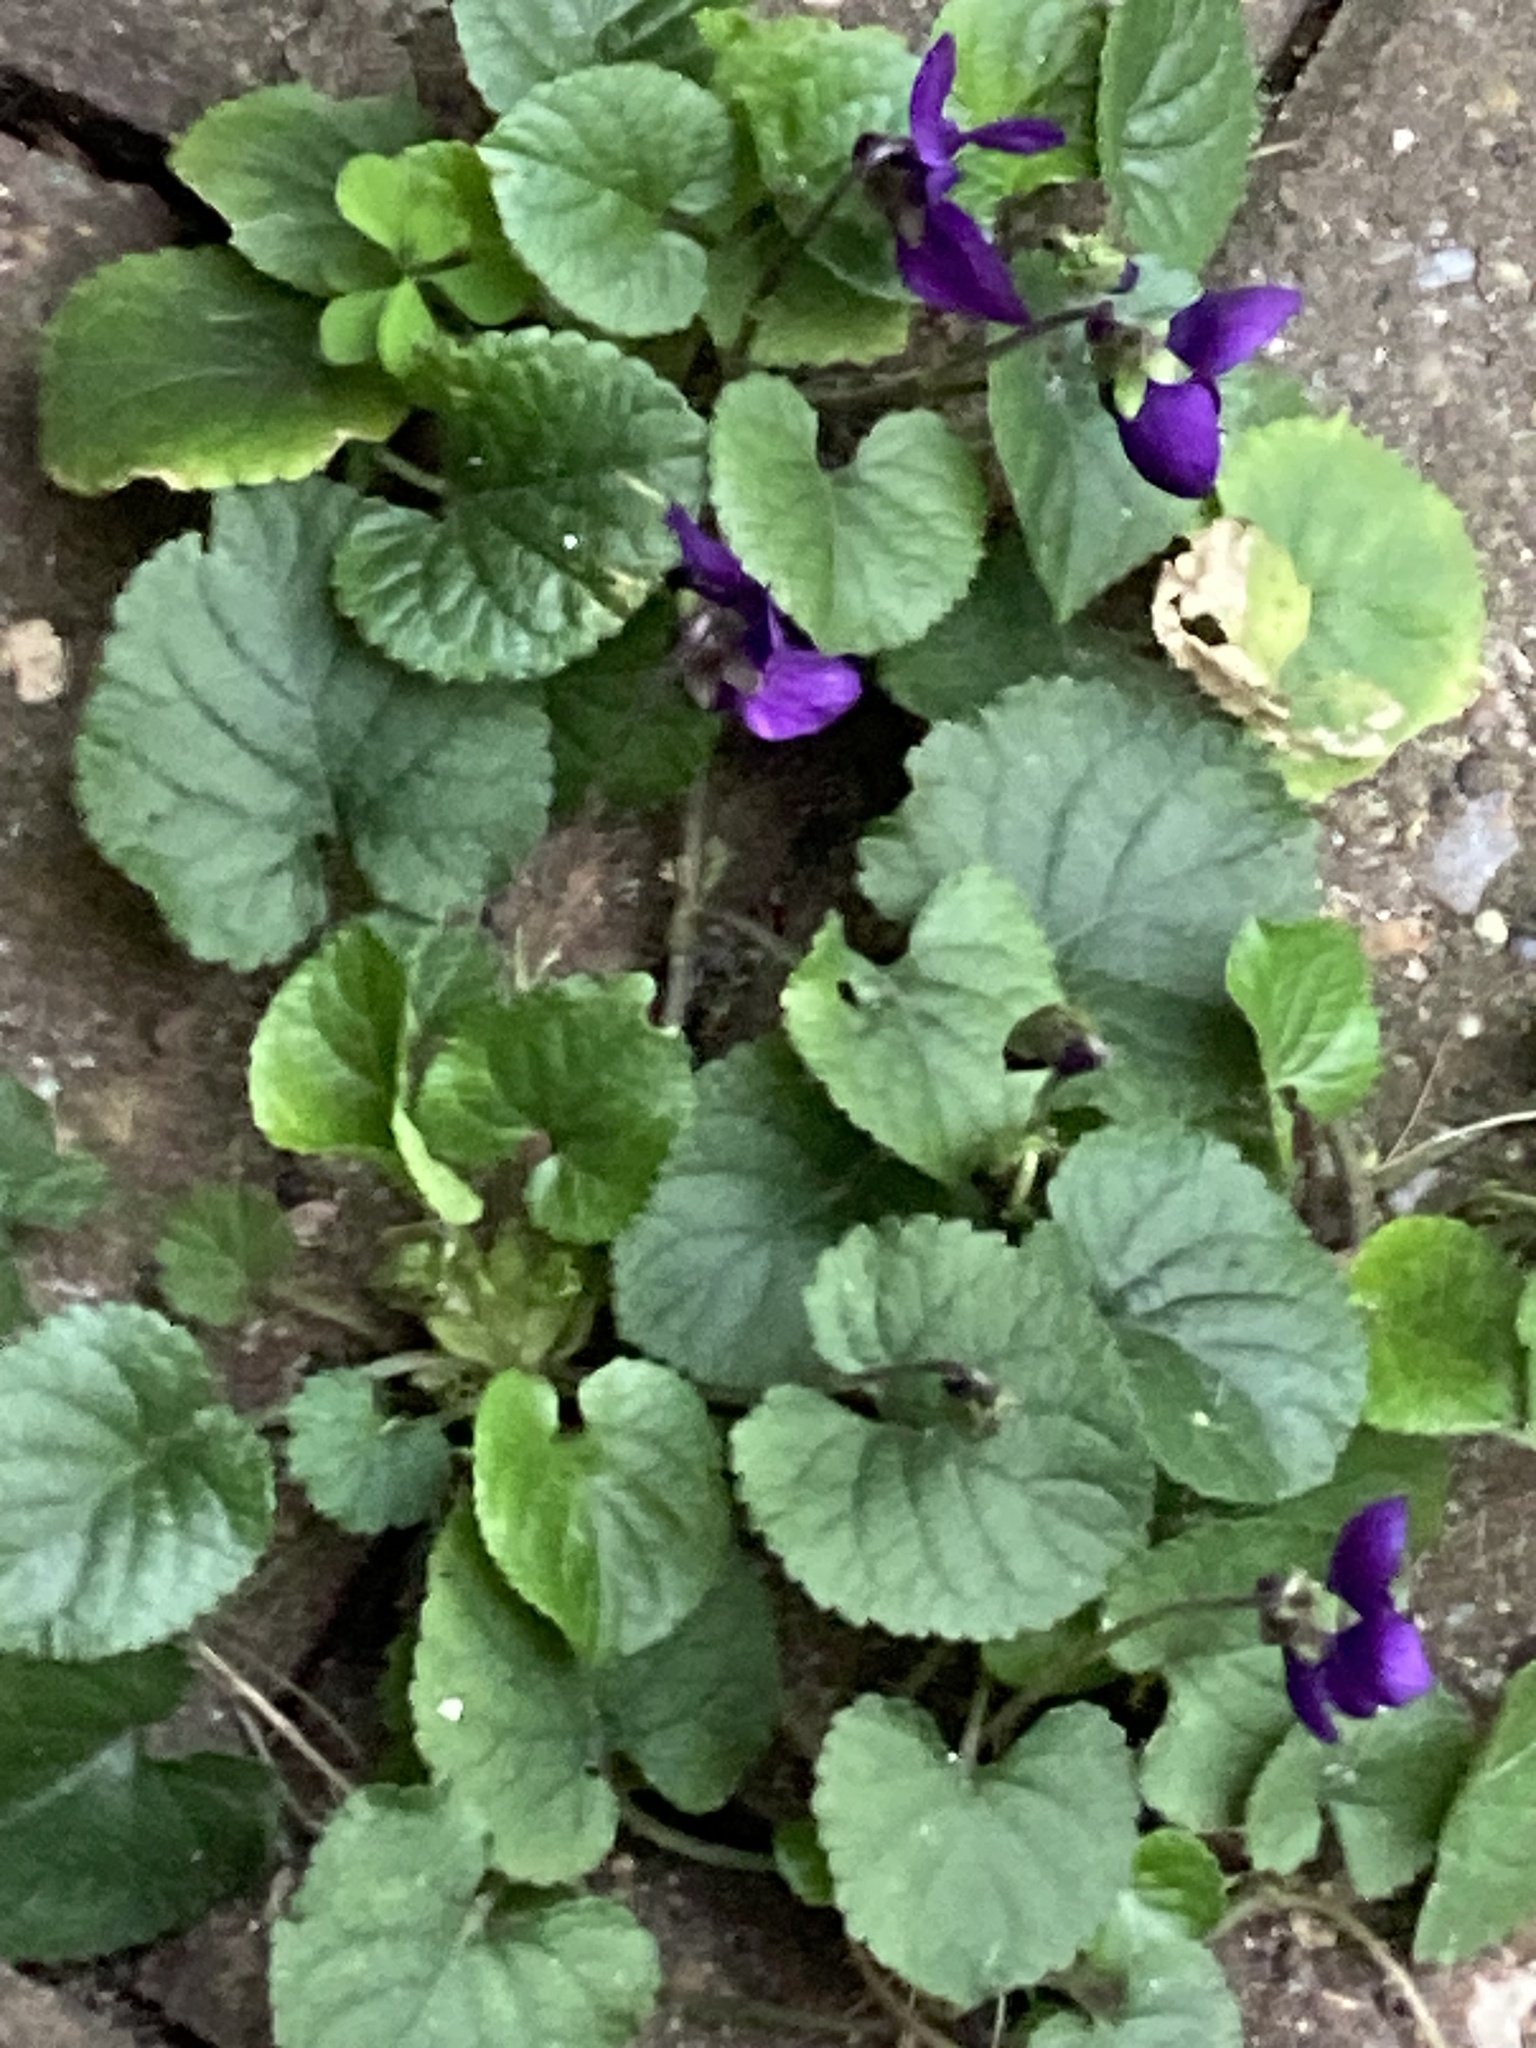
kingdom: Plantae
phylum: Tracheophyta
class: Magnoliopsida
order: Malpighiales
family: Violaceae
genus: Viola
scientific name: Viola odorata
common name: Sweet violet
